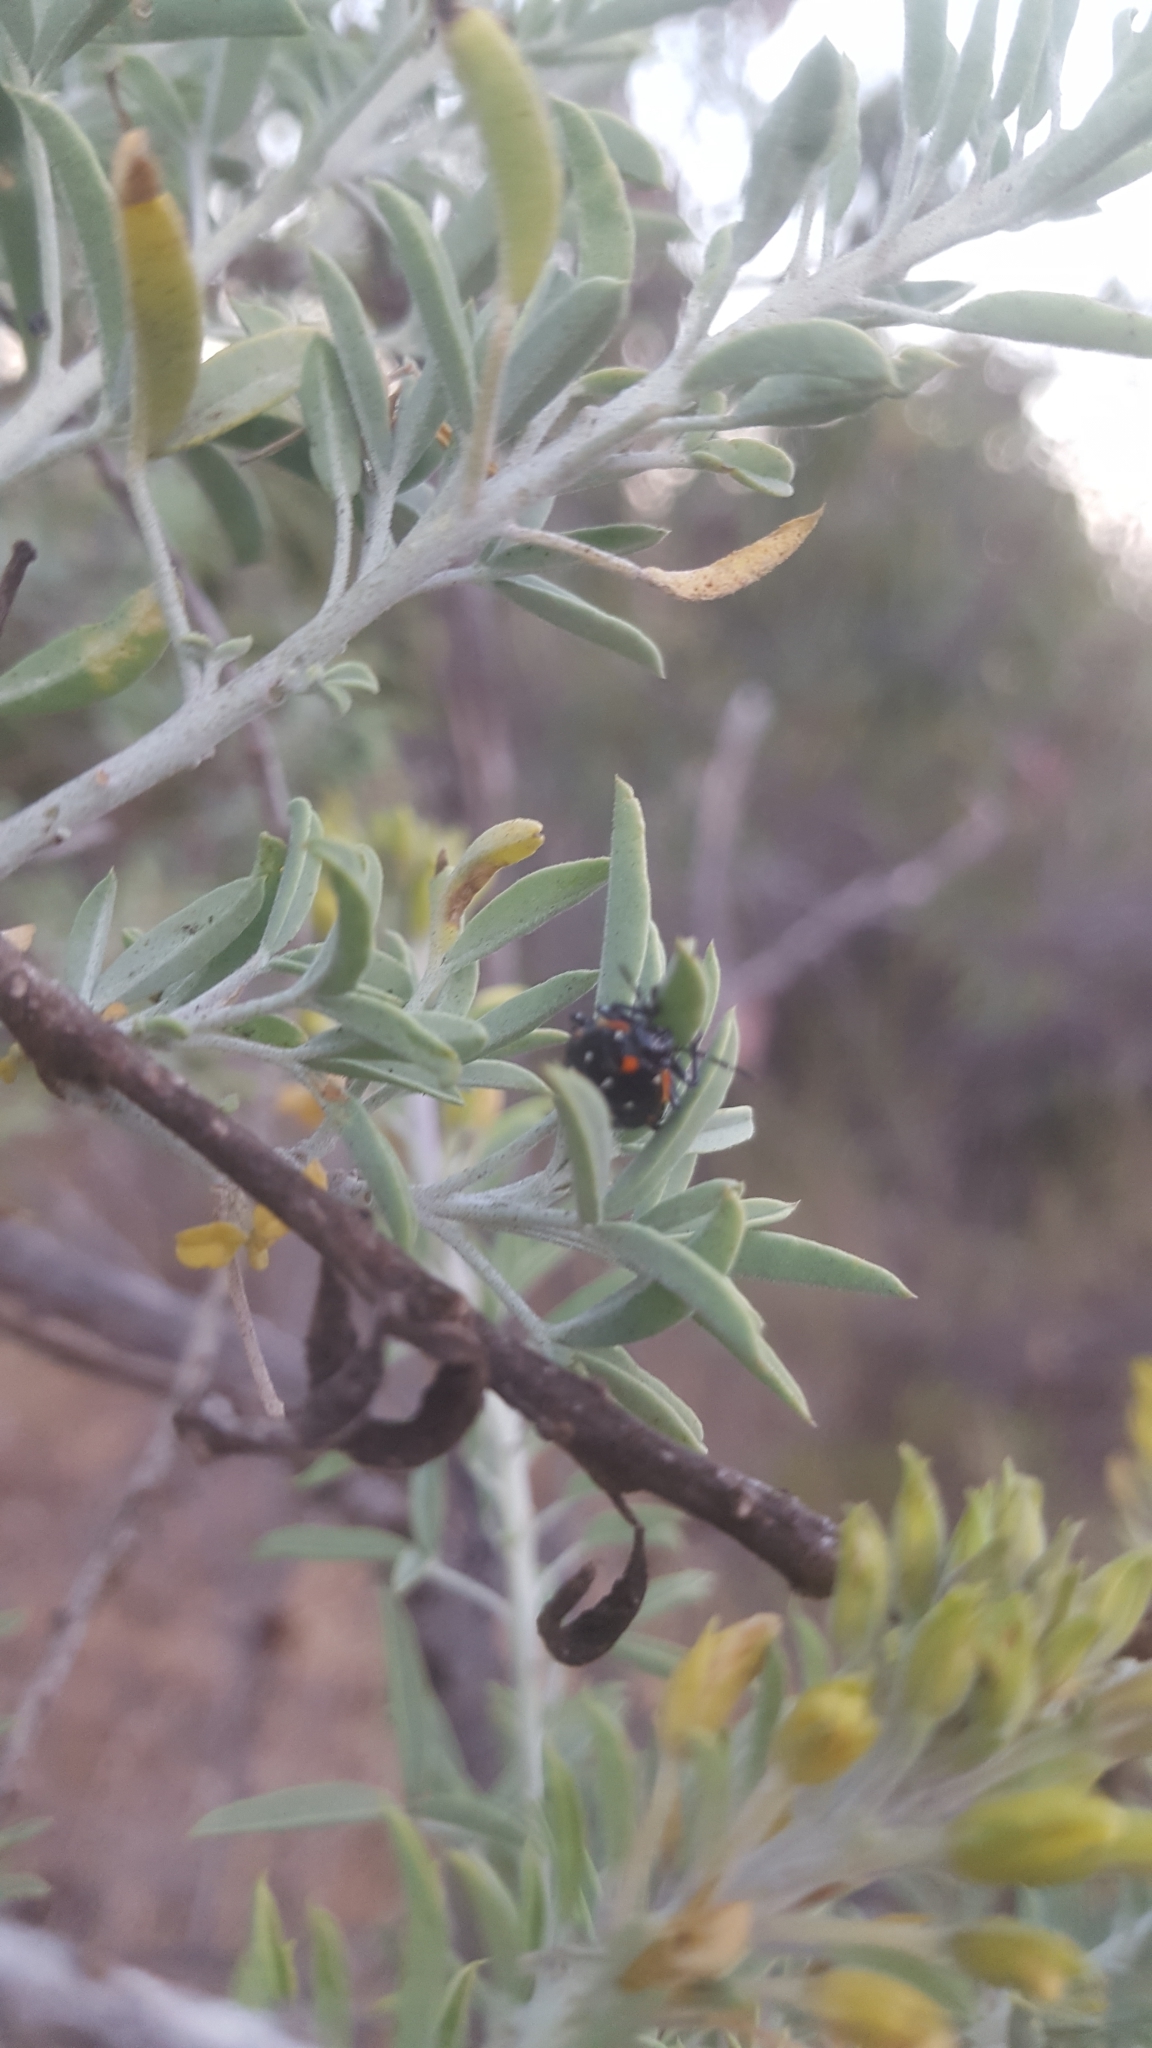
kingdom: Animalia
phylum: Arthropoda
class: Insecta
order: Hemiptera
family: Pentatomidae
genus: Murgantia
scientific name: Murgantia histrionica
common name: Harlequin bug
